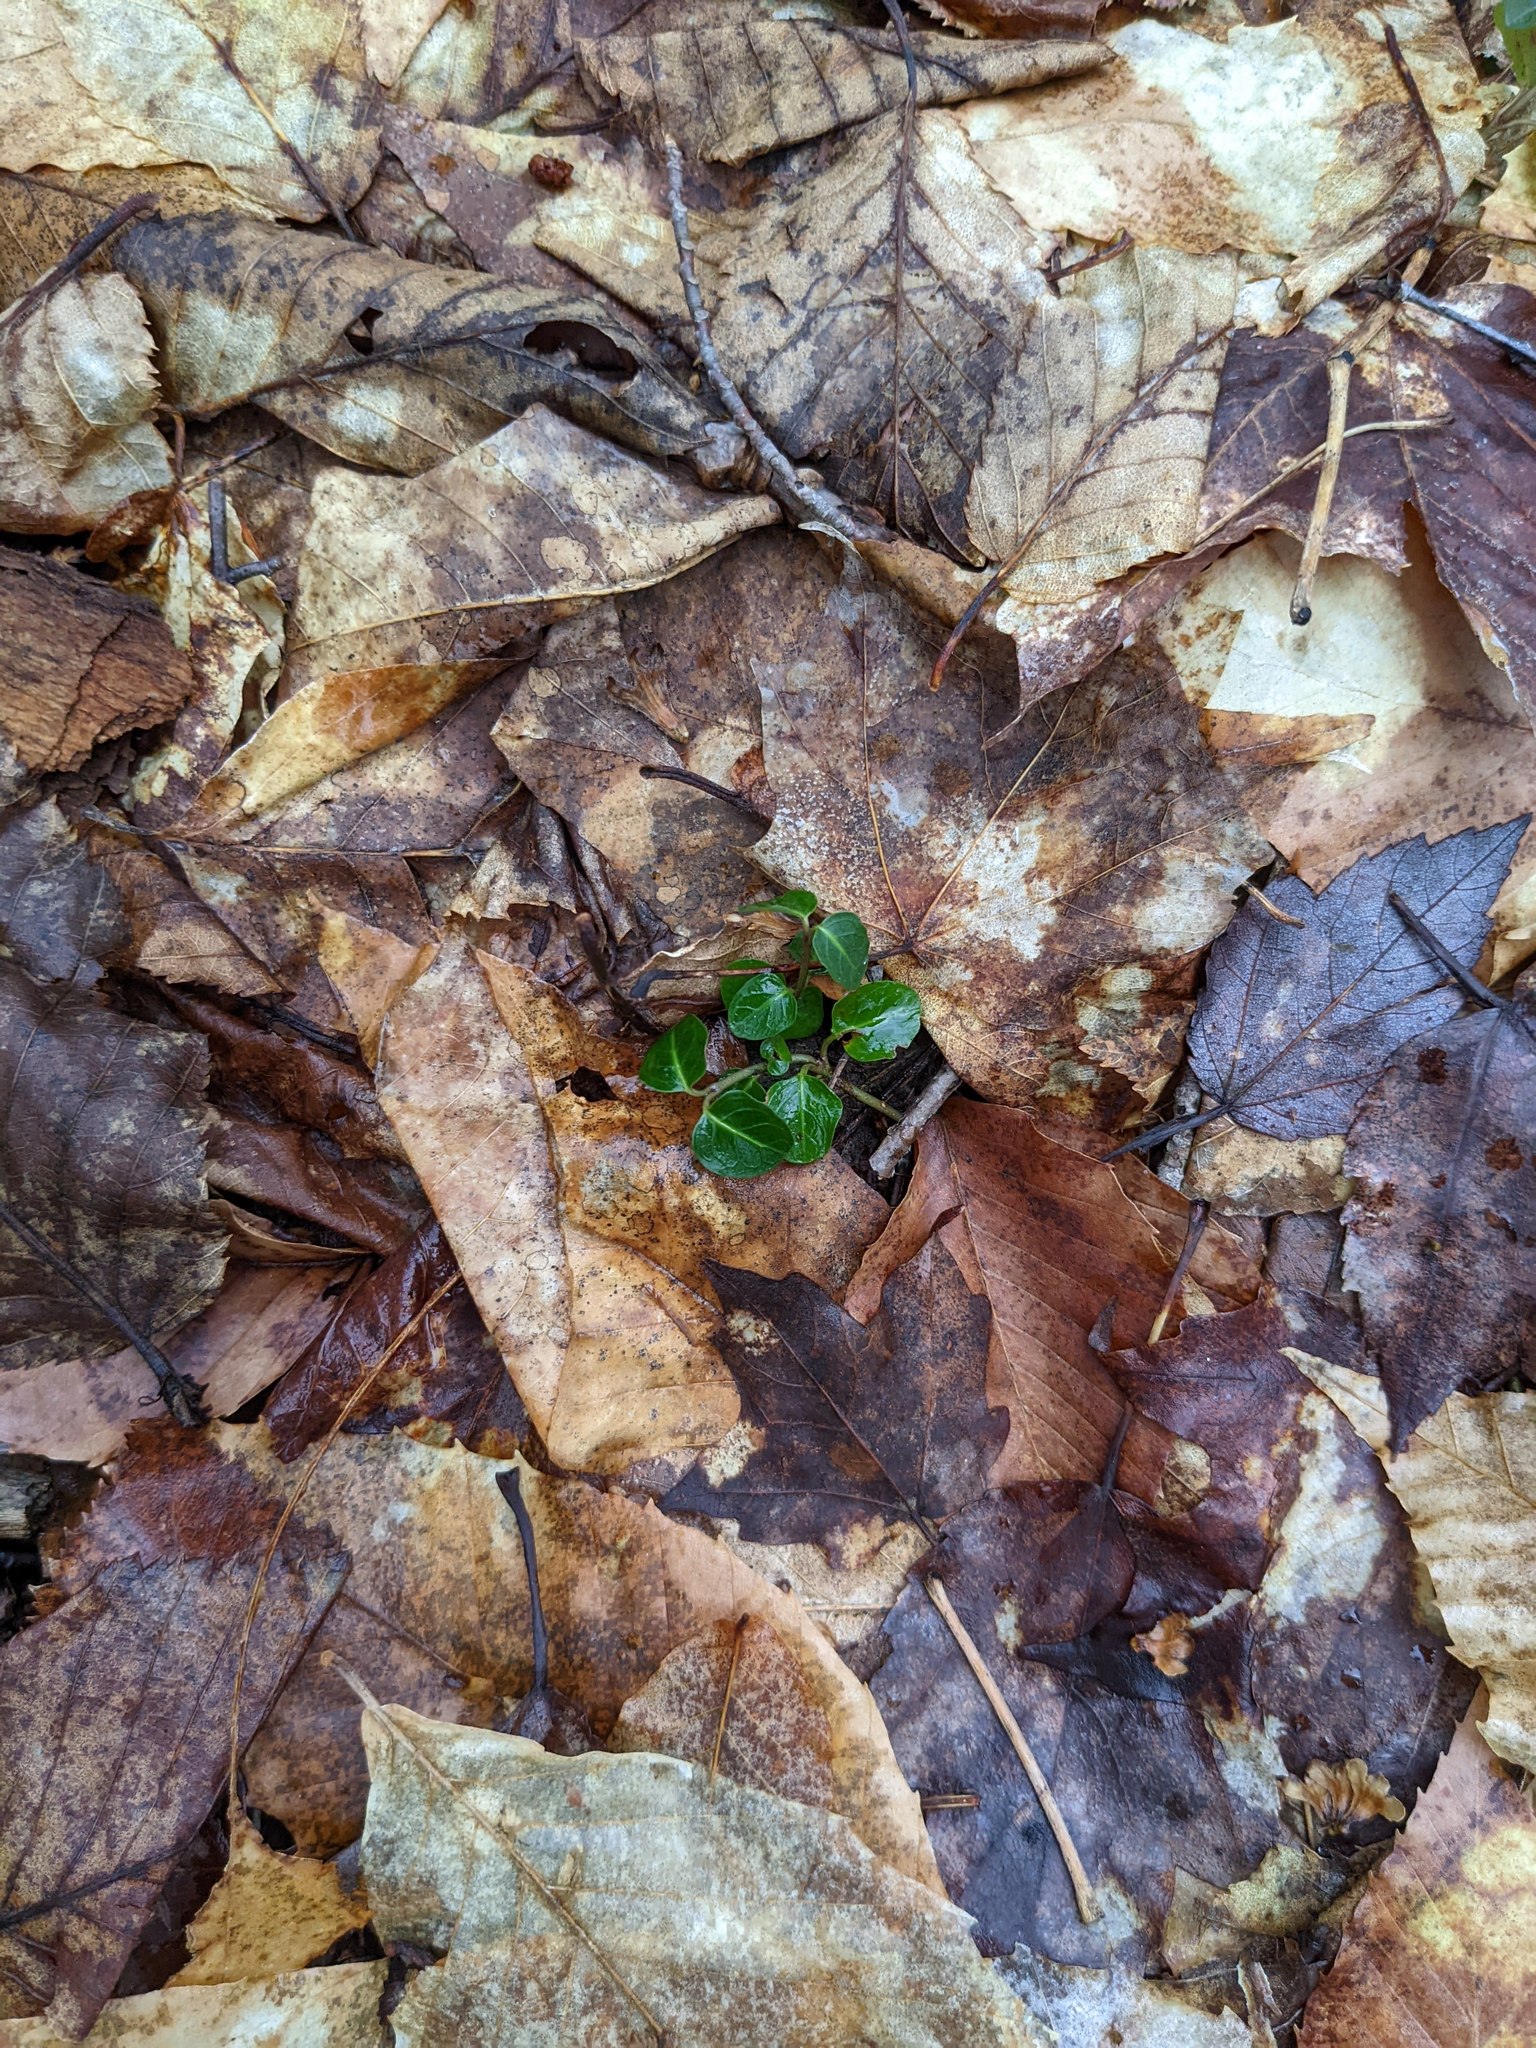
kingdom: Plantae
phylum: Tracheophyta
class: Magnoliopsida
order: Gentianales
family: Rubiaceae
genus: Mitchella
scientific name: Mitchella repens
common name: Partridge-berry
